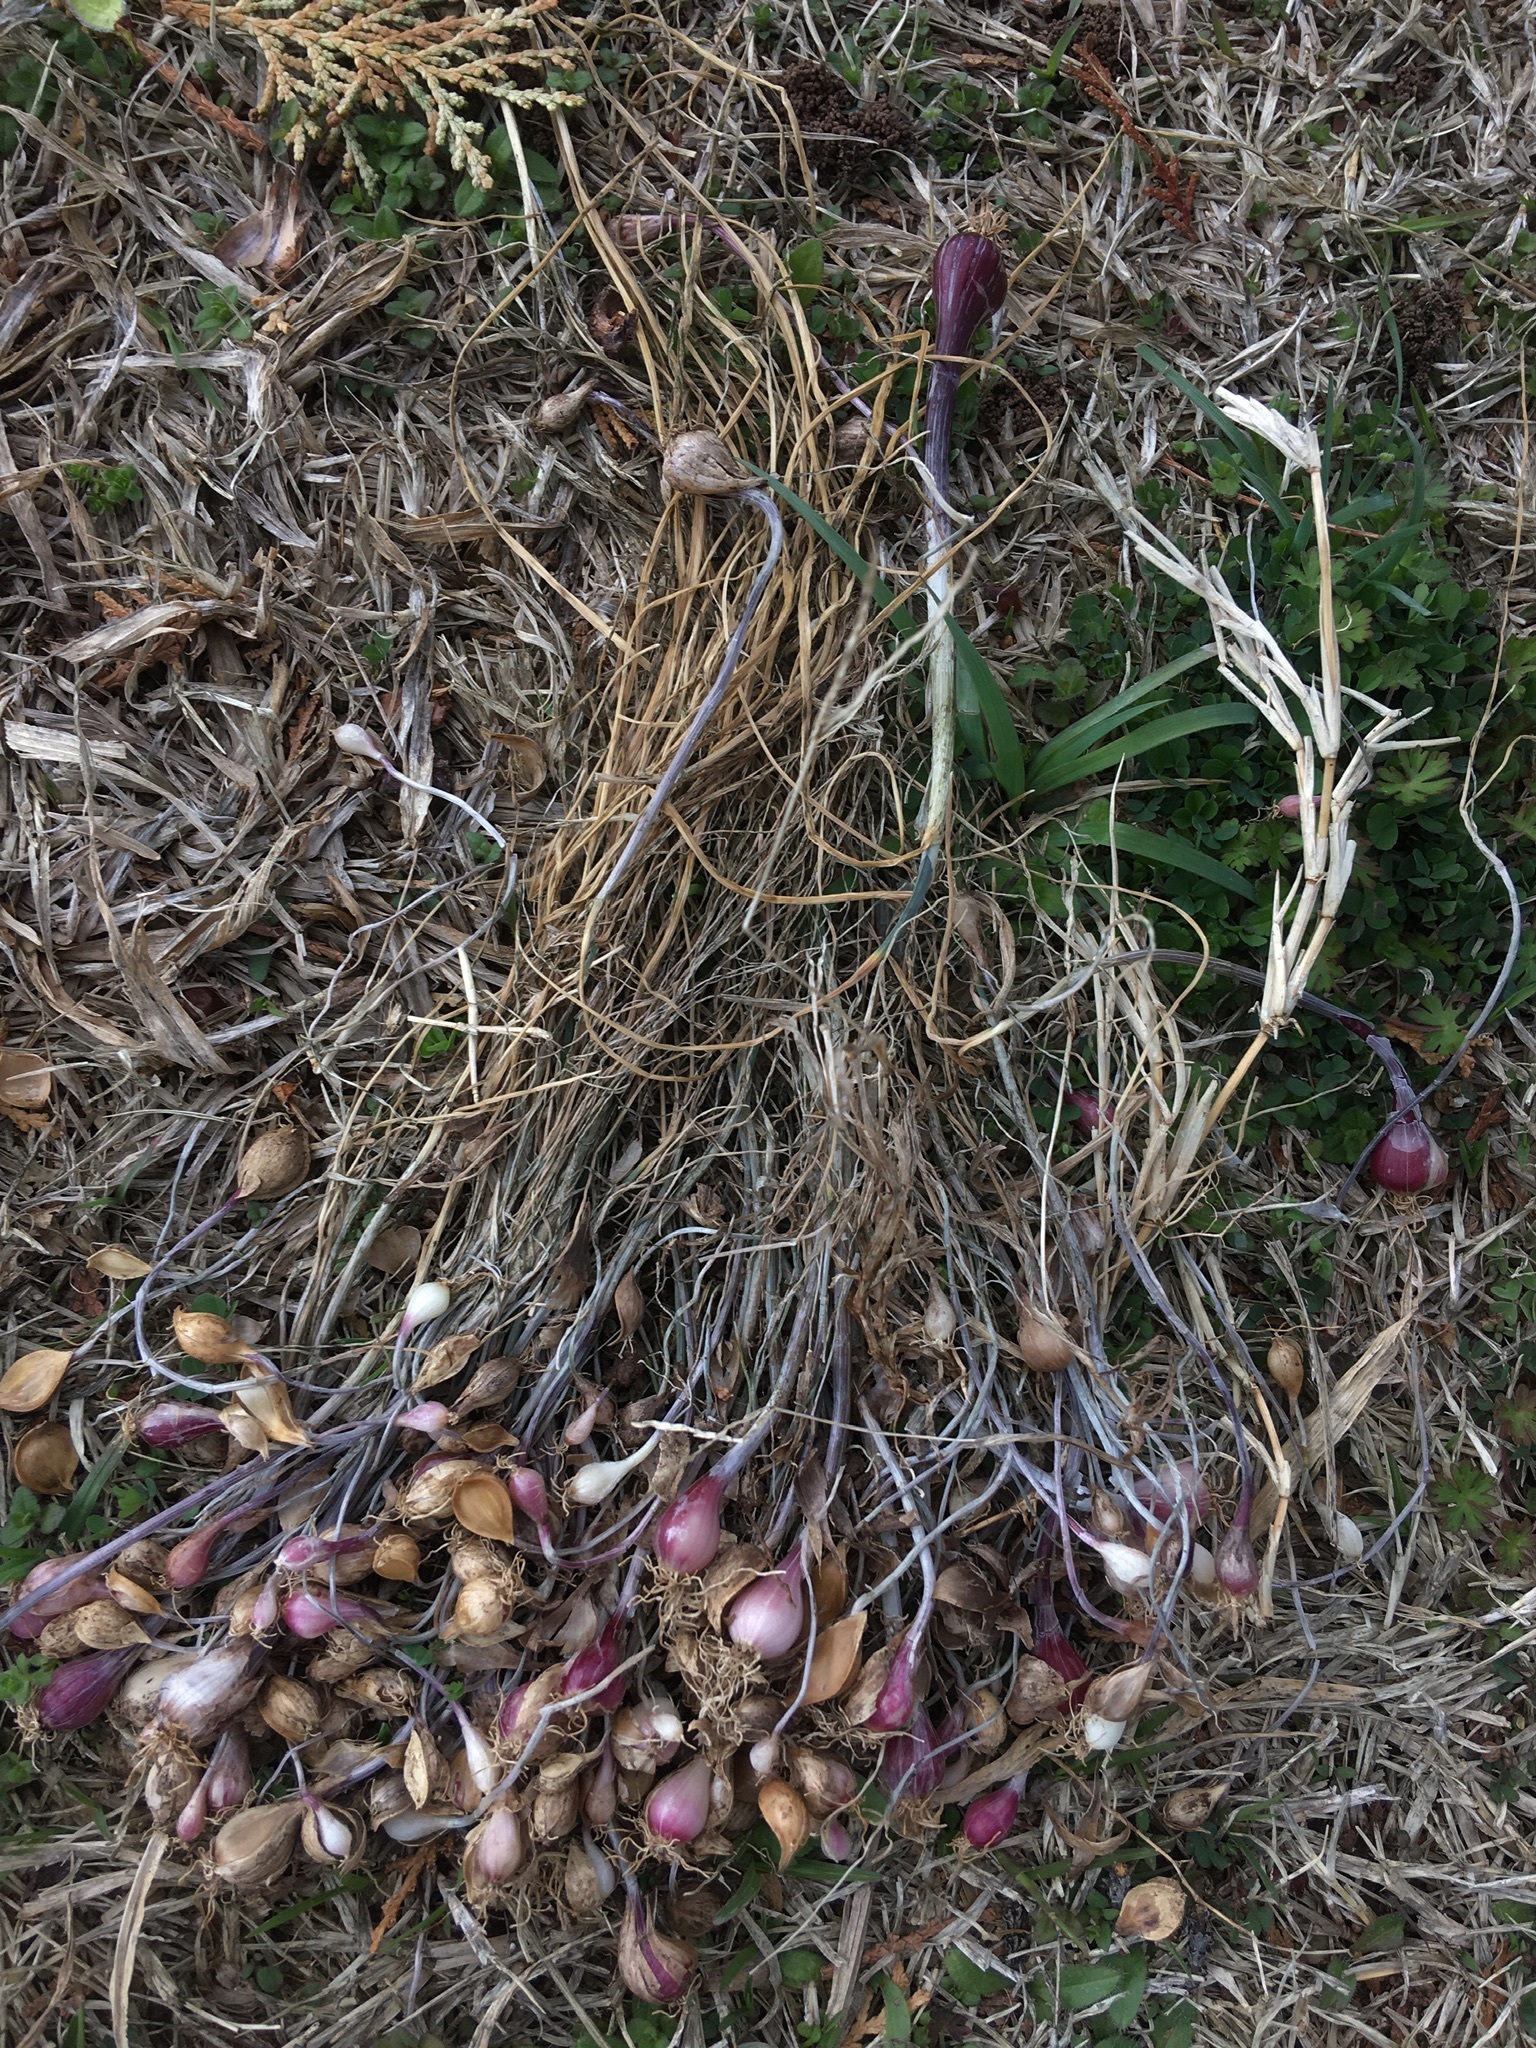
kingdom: Plantae
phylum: Tracheophyta
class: Liliopsida
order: Asparagales
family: Amaryllidaceae
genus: Allium
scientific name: Allium vineale
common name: Crow garlic
